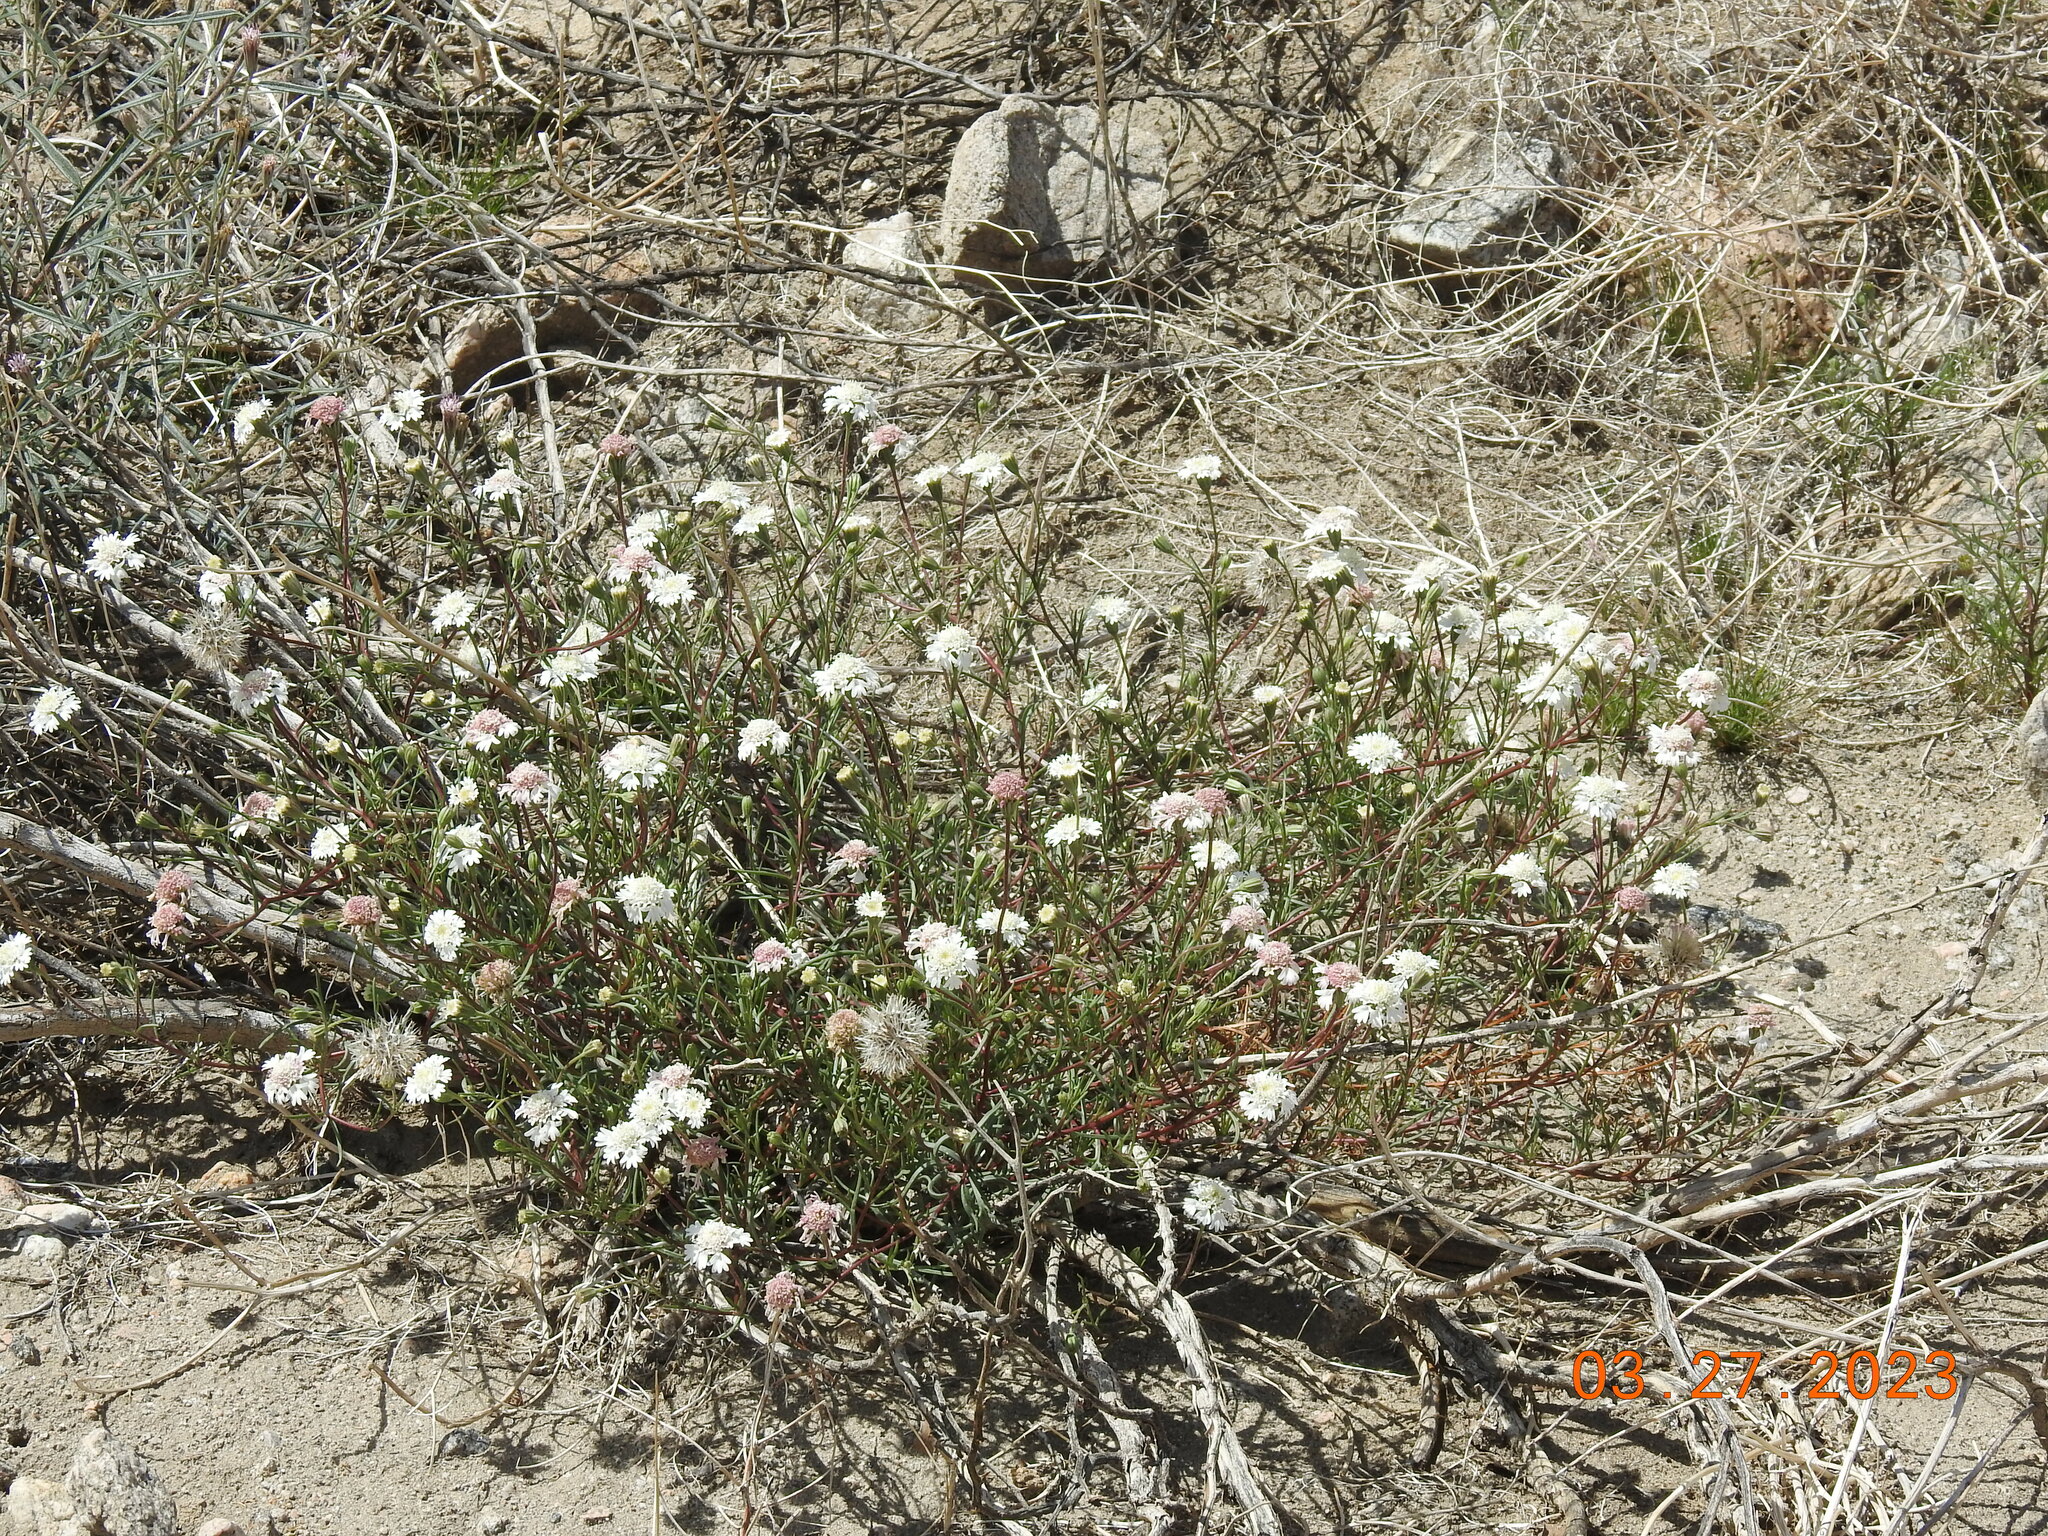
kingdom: Plantae
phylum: Tracheophyta
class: Magnoliopsida
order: Asterales
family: Asteraceae
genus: Chaenactis
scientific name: Chaenactis fremontii
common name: Fremont pincushion
